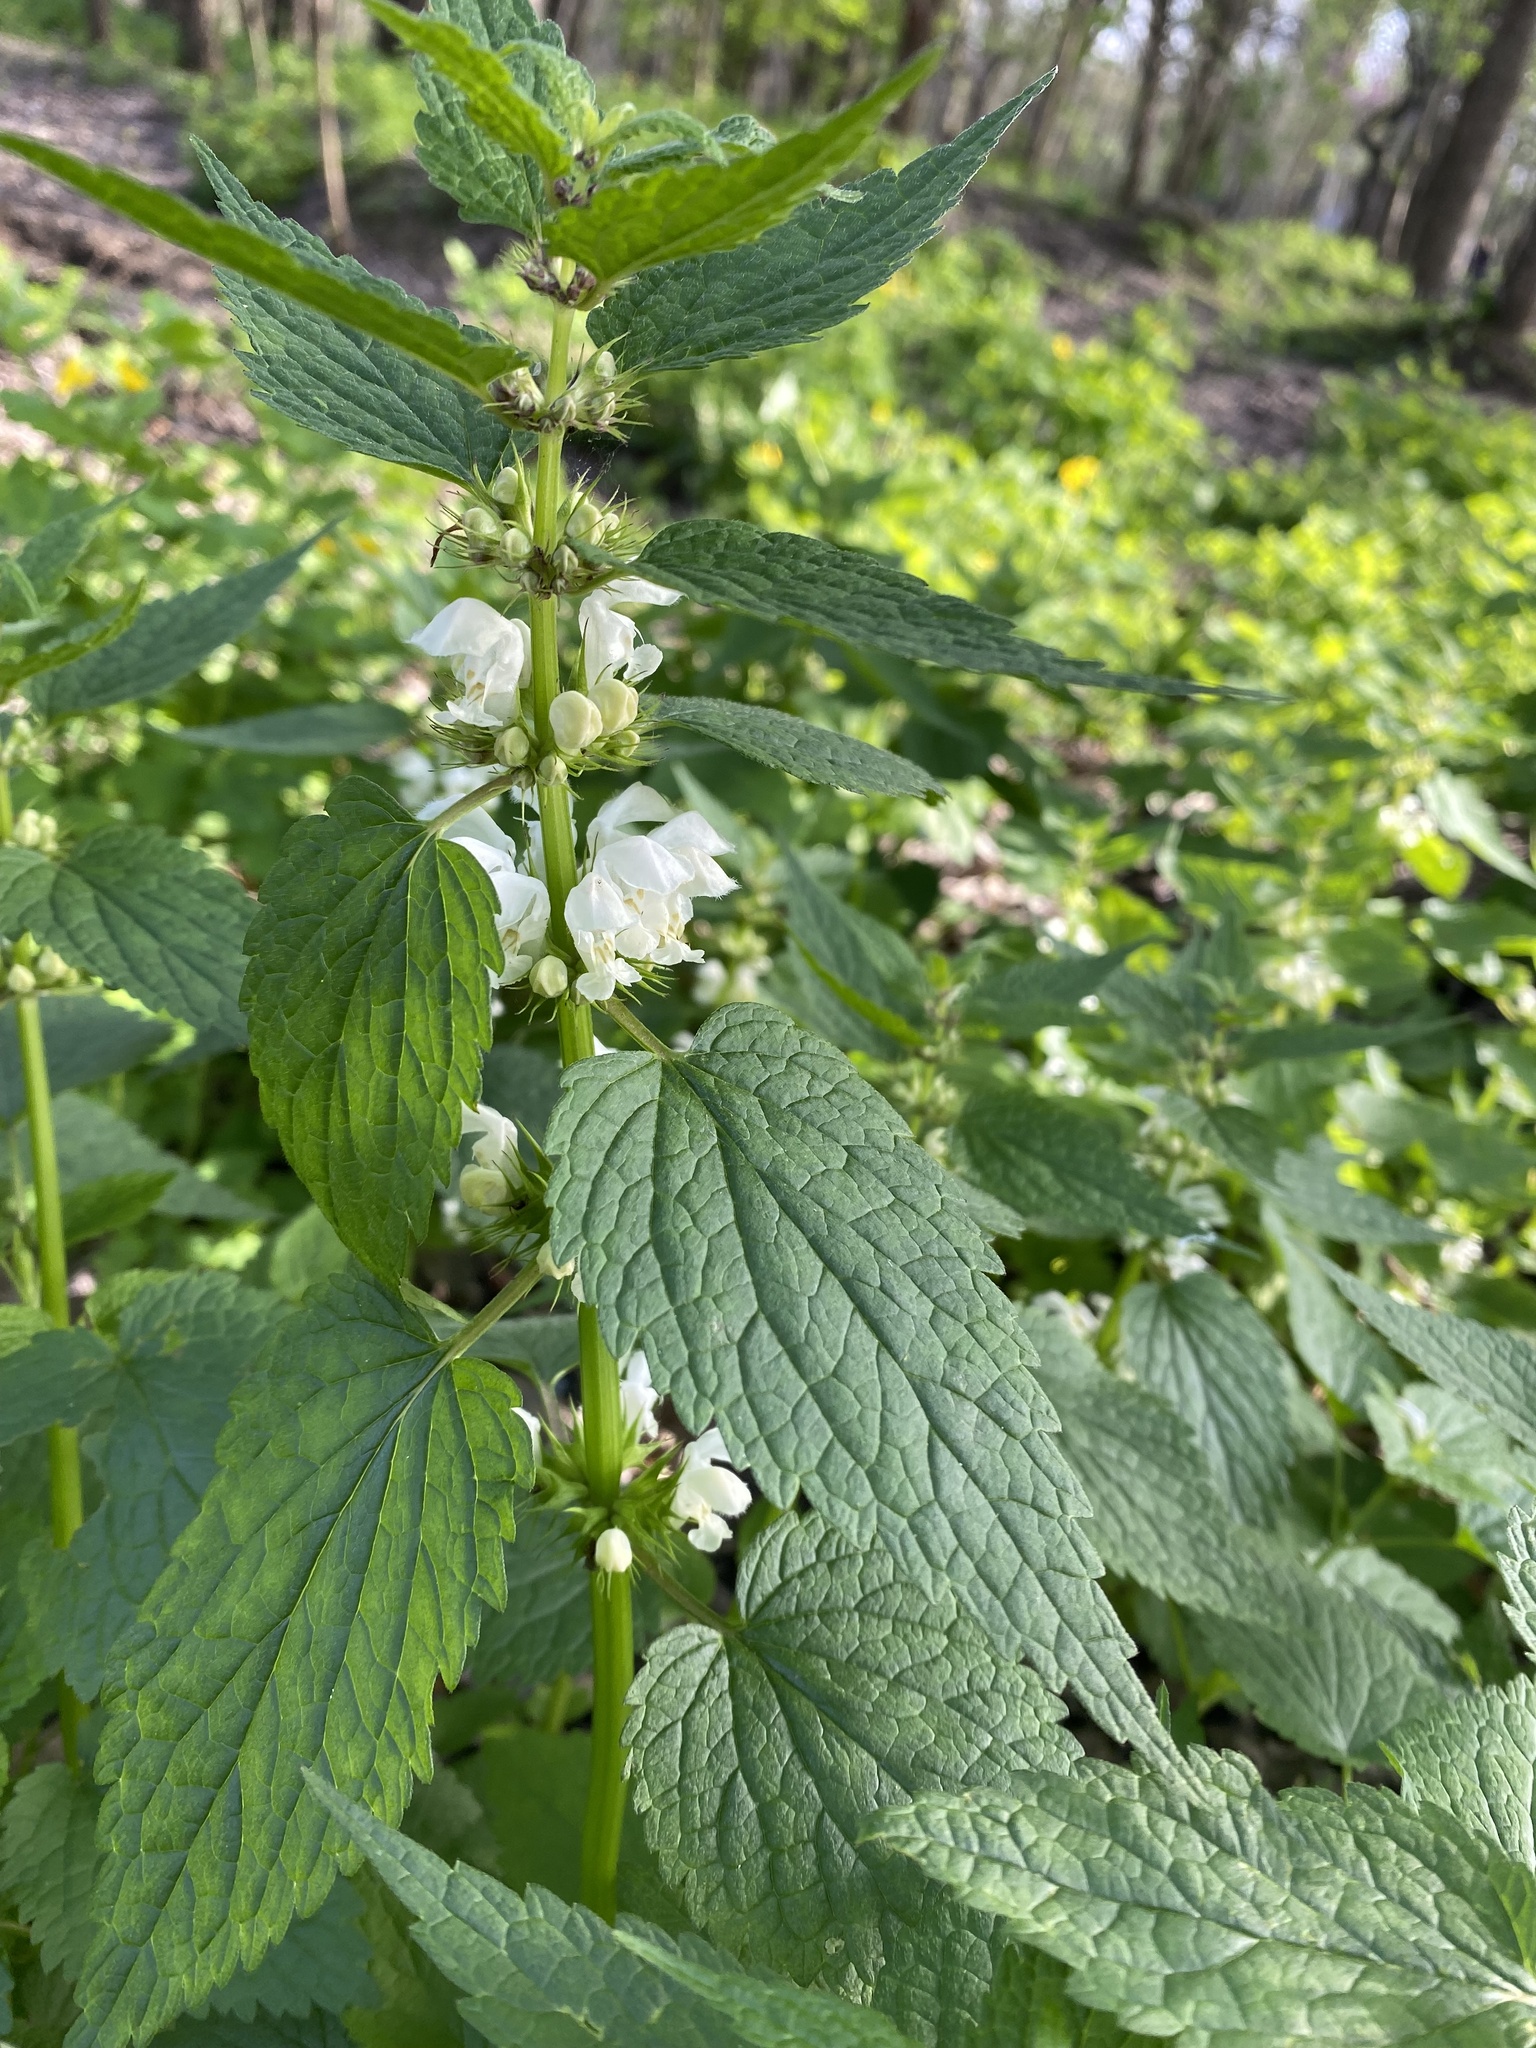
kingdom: Plantae
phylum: Tracheophyta
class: Magnoliopsida
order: Lamiales
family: Lamiaceae
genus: Lamium
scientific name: Lamium album
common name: White dead-nettle
